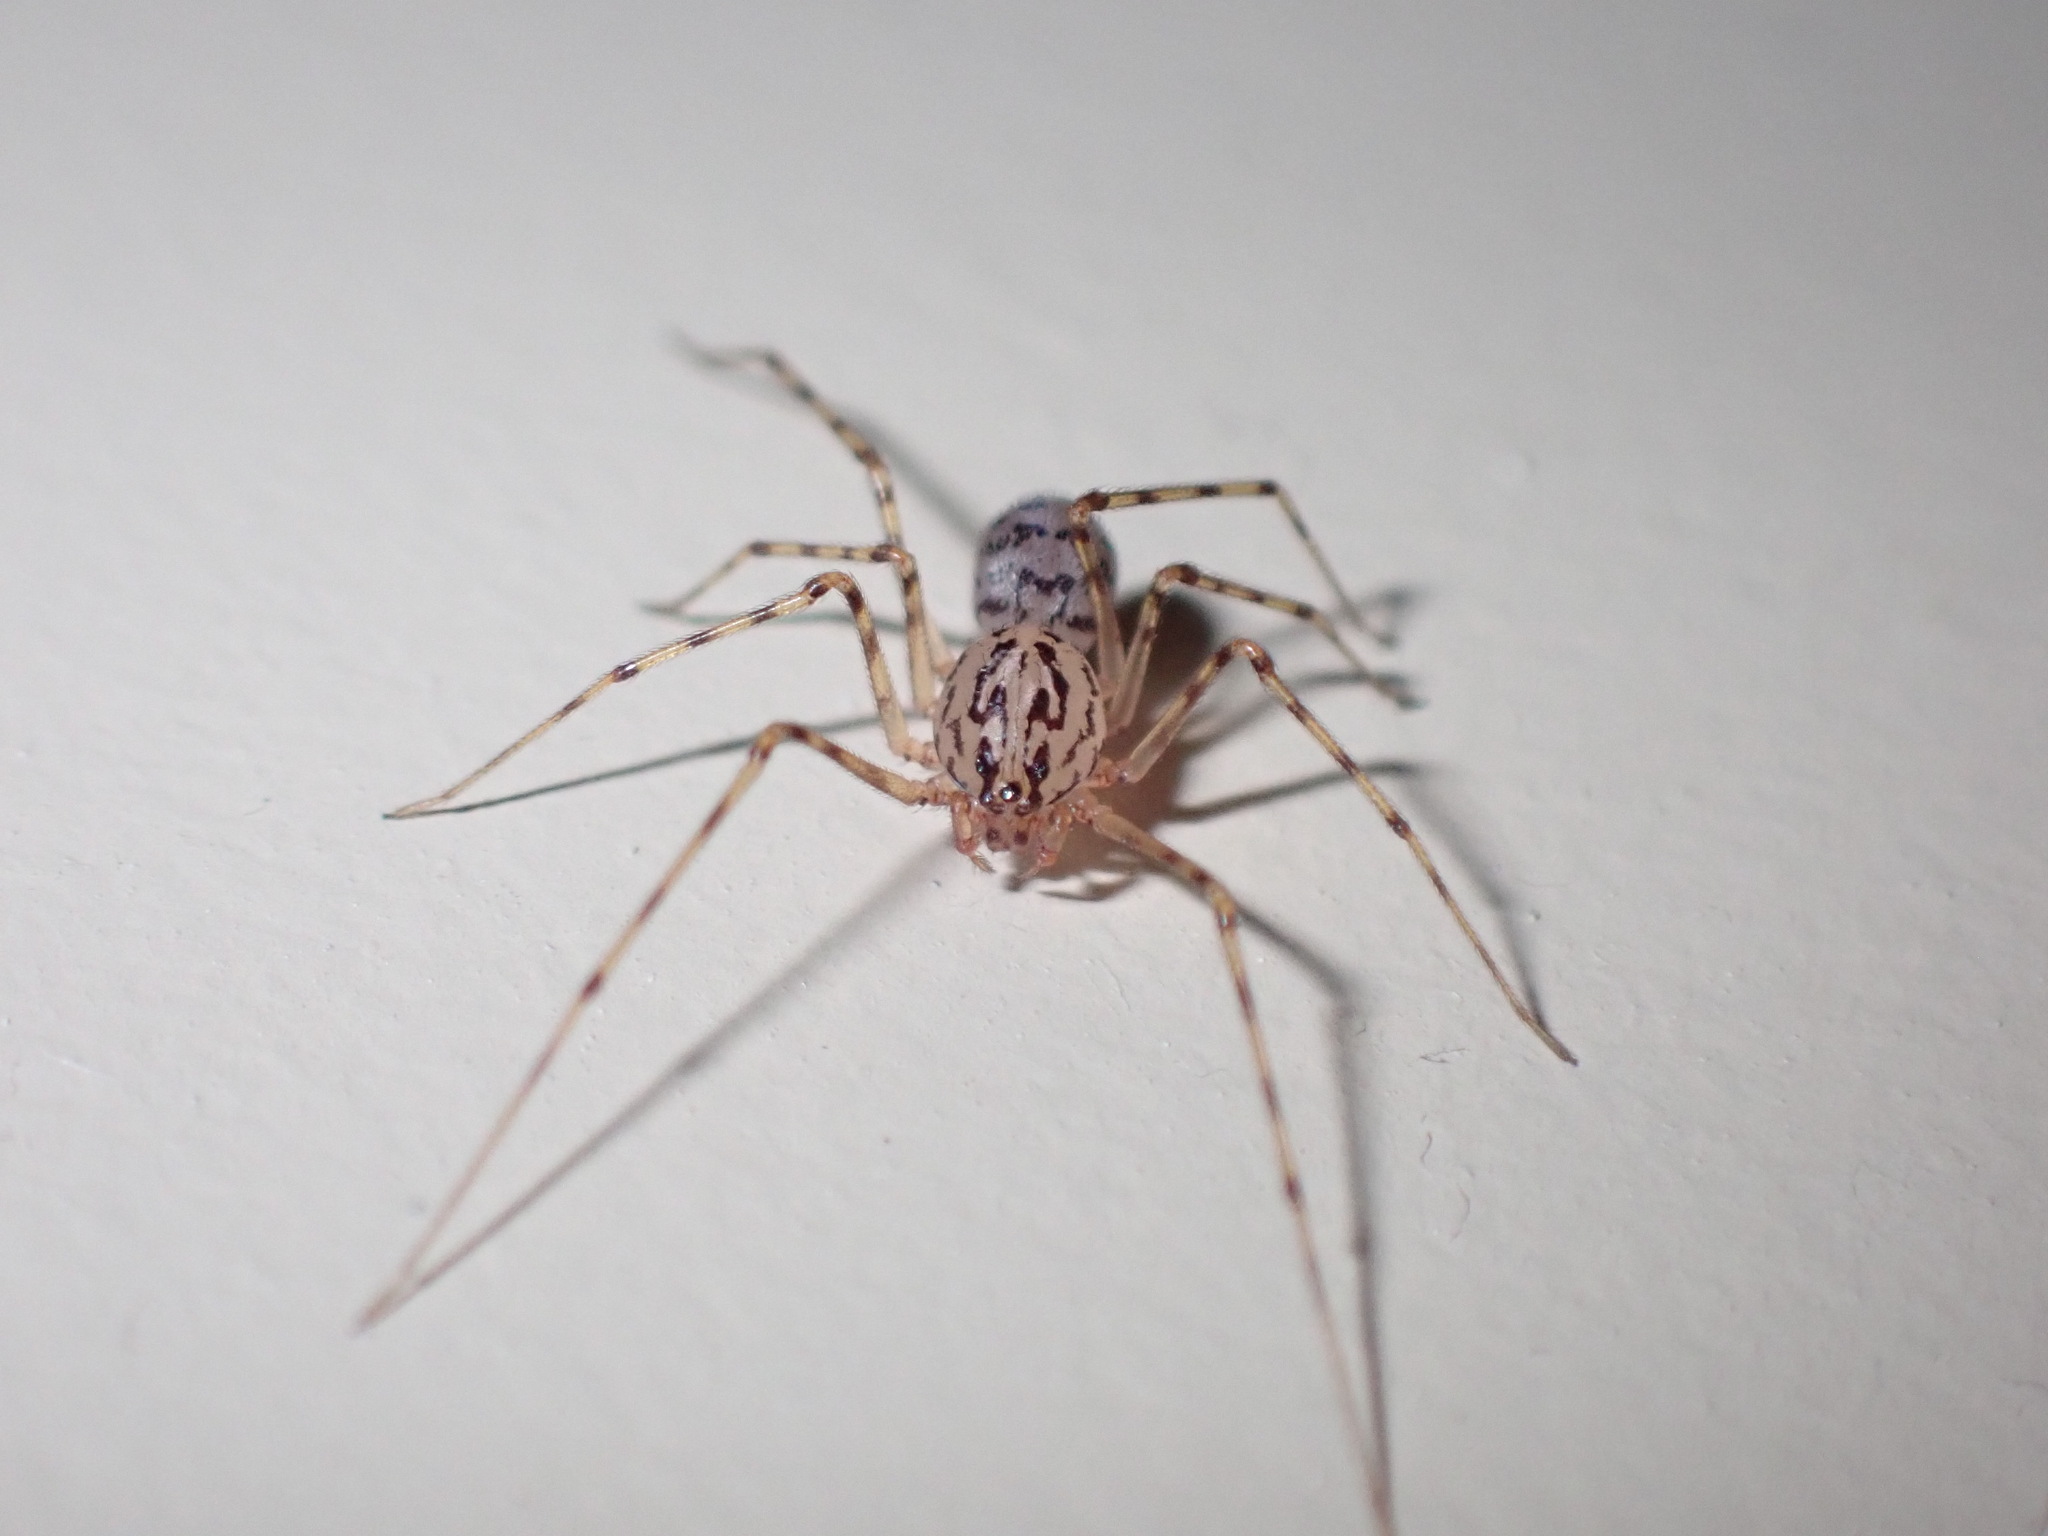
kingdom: Animalia
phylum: Arthropoda
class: Arachnida
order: Araneae
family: Scytodidae
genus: Scytodes
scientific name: Scytodes thoracica
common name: Spitting spider
